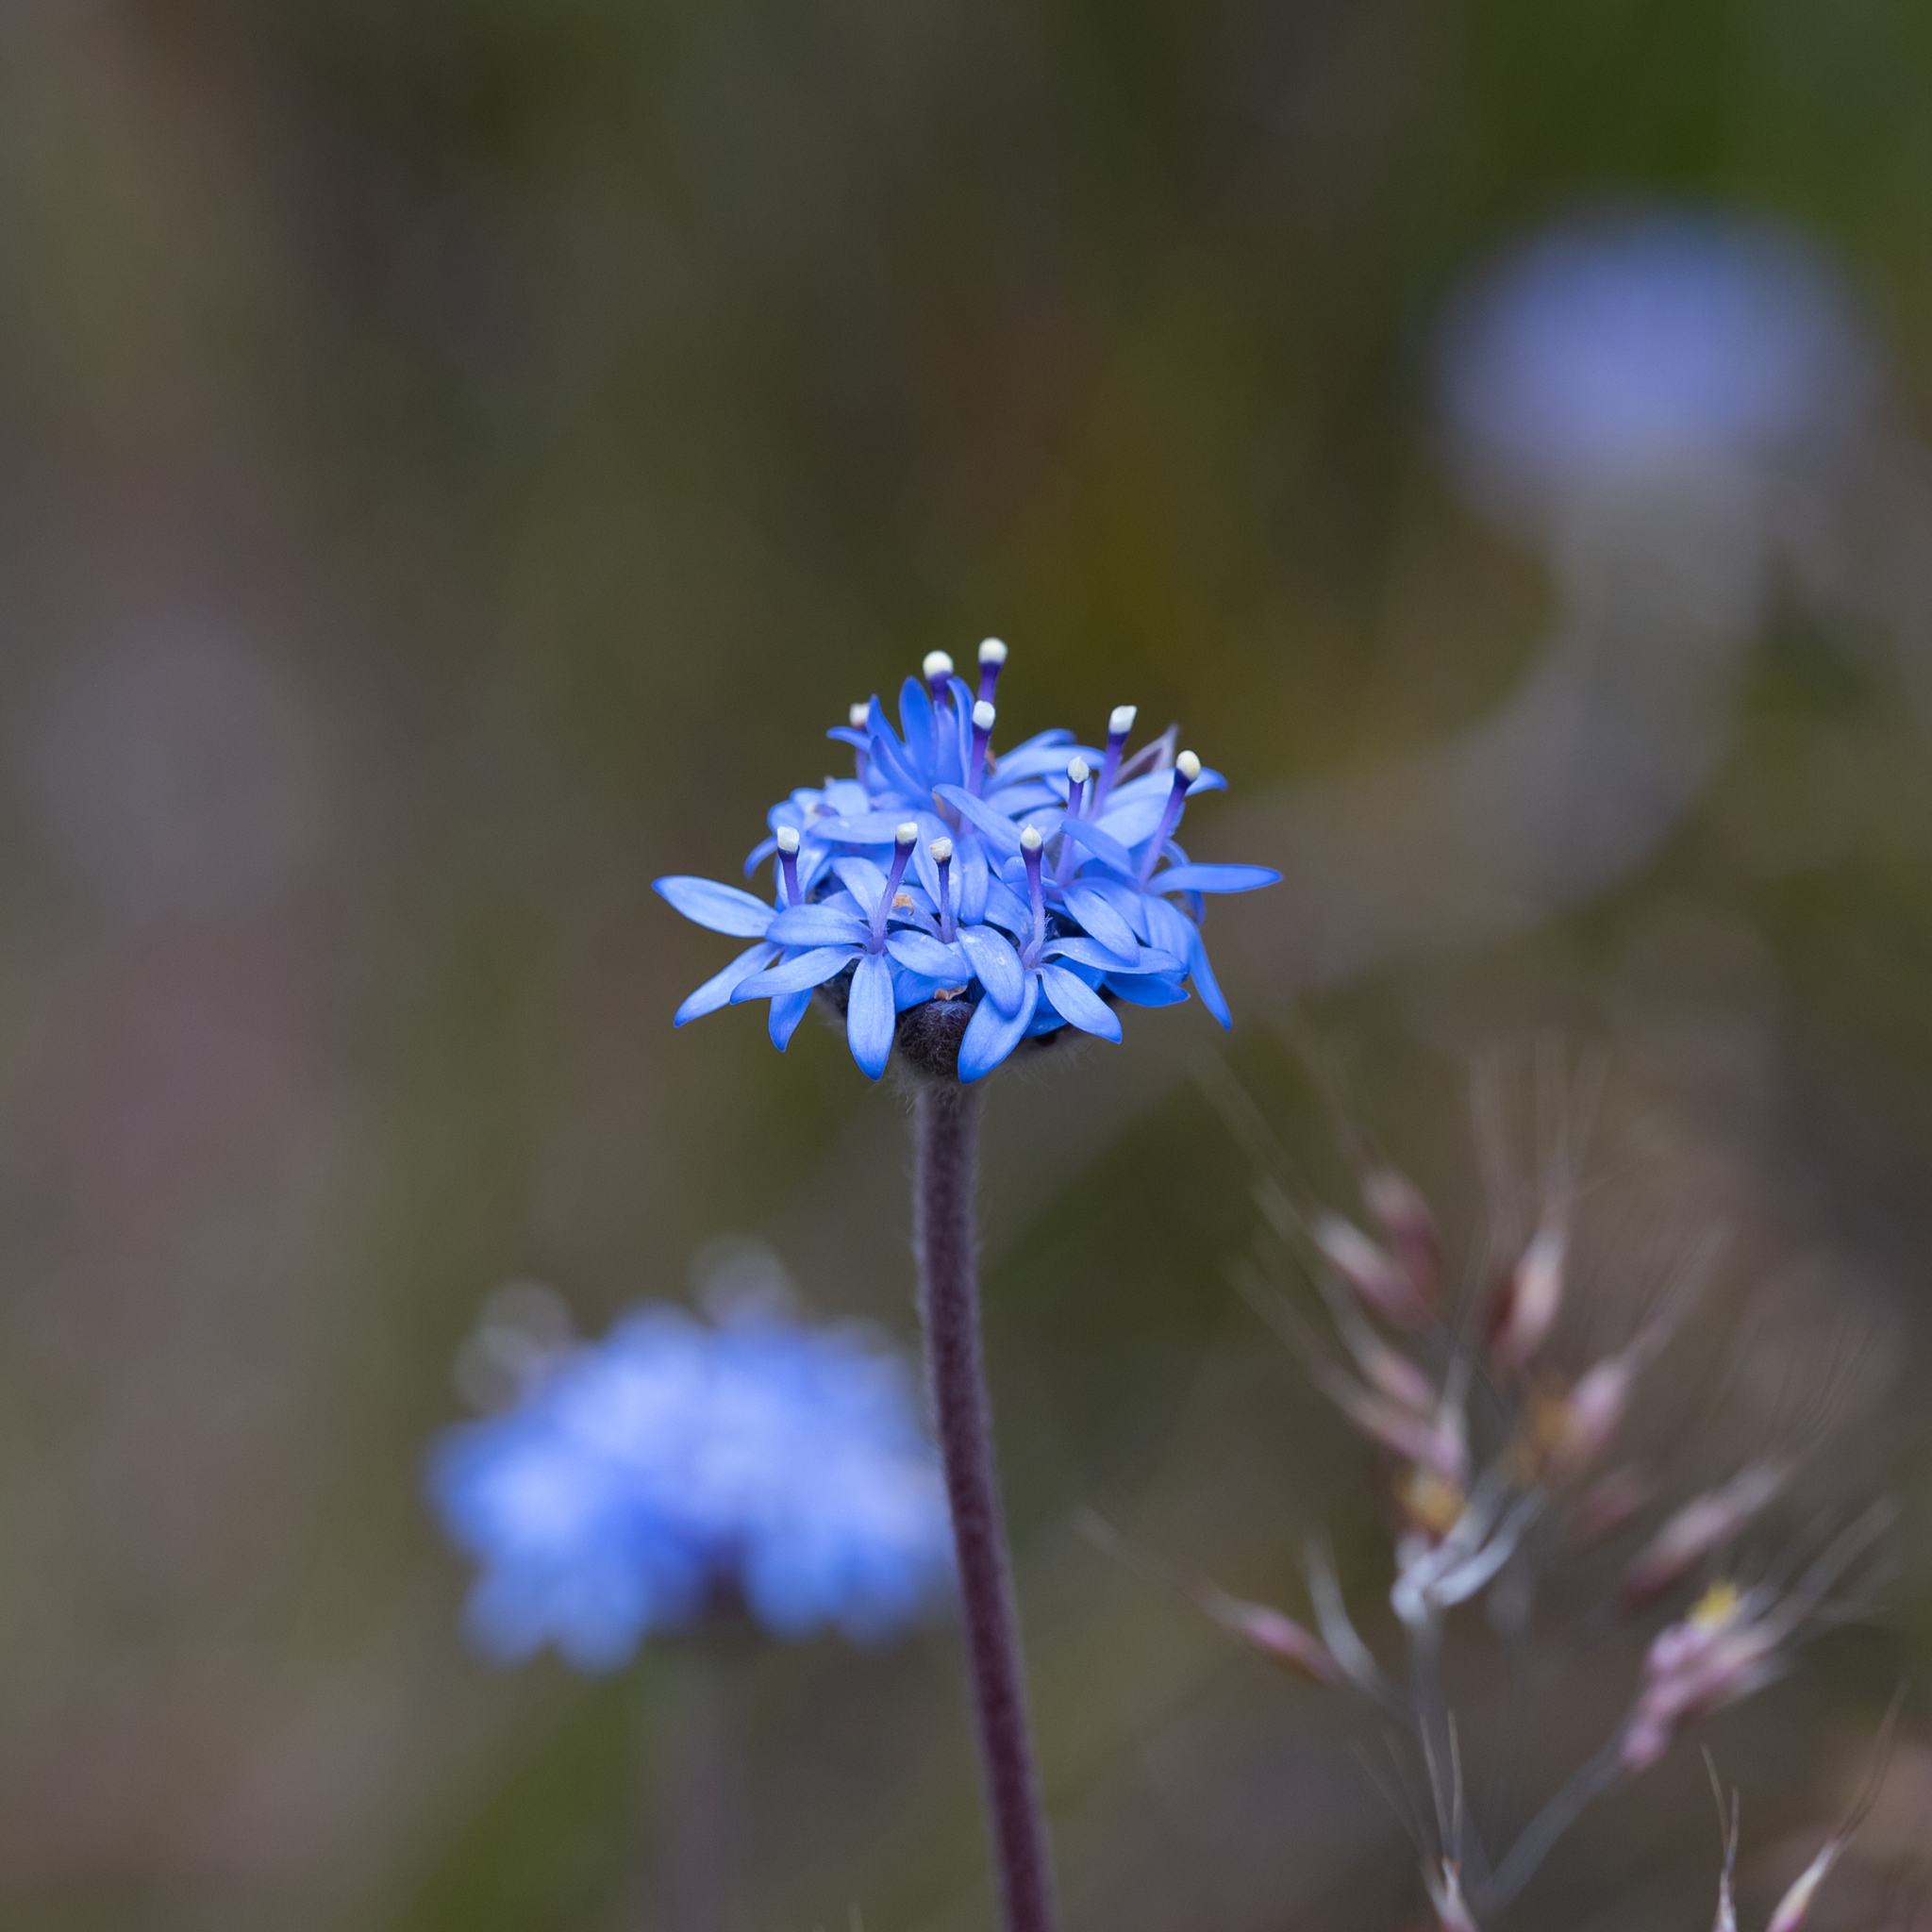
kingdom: Plantae
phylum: Tracheophyta
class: Magnoliopsida
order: Asterales
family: Goodeniaceae
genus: Brunonia
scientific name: Brunonia australis
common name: Blue pincushion
